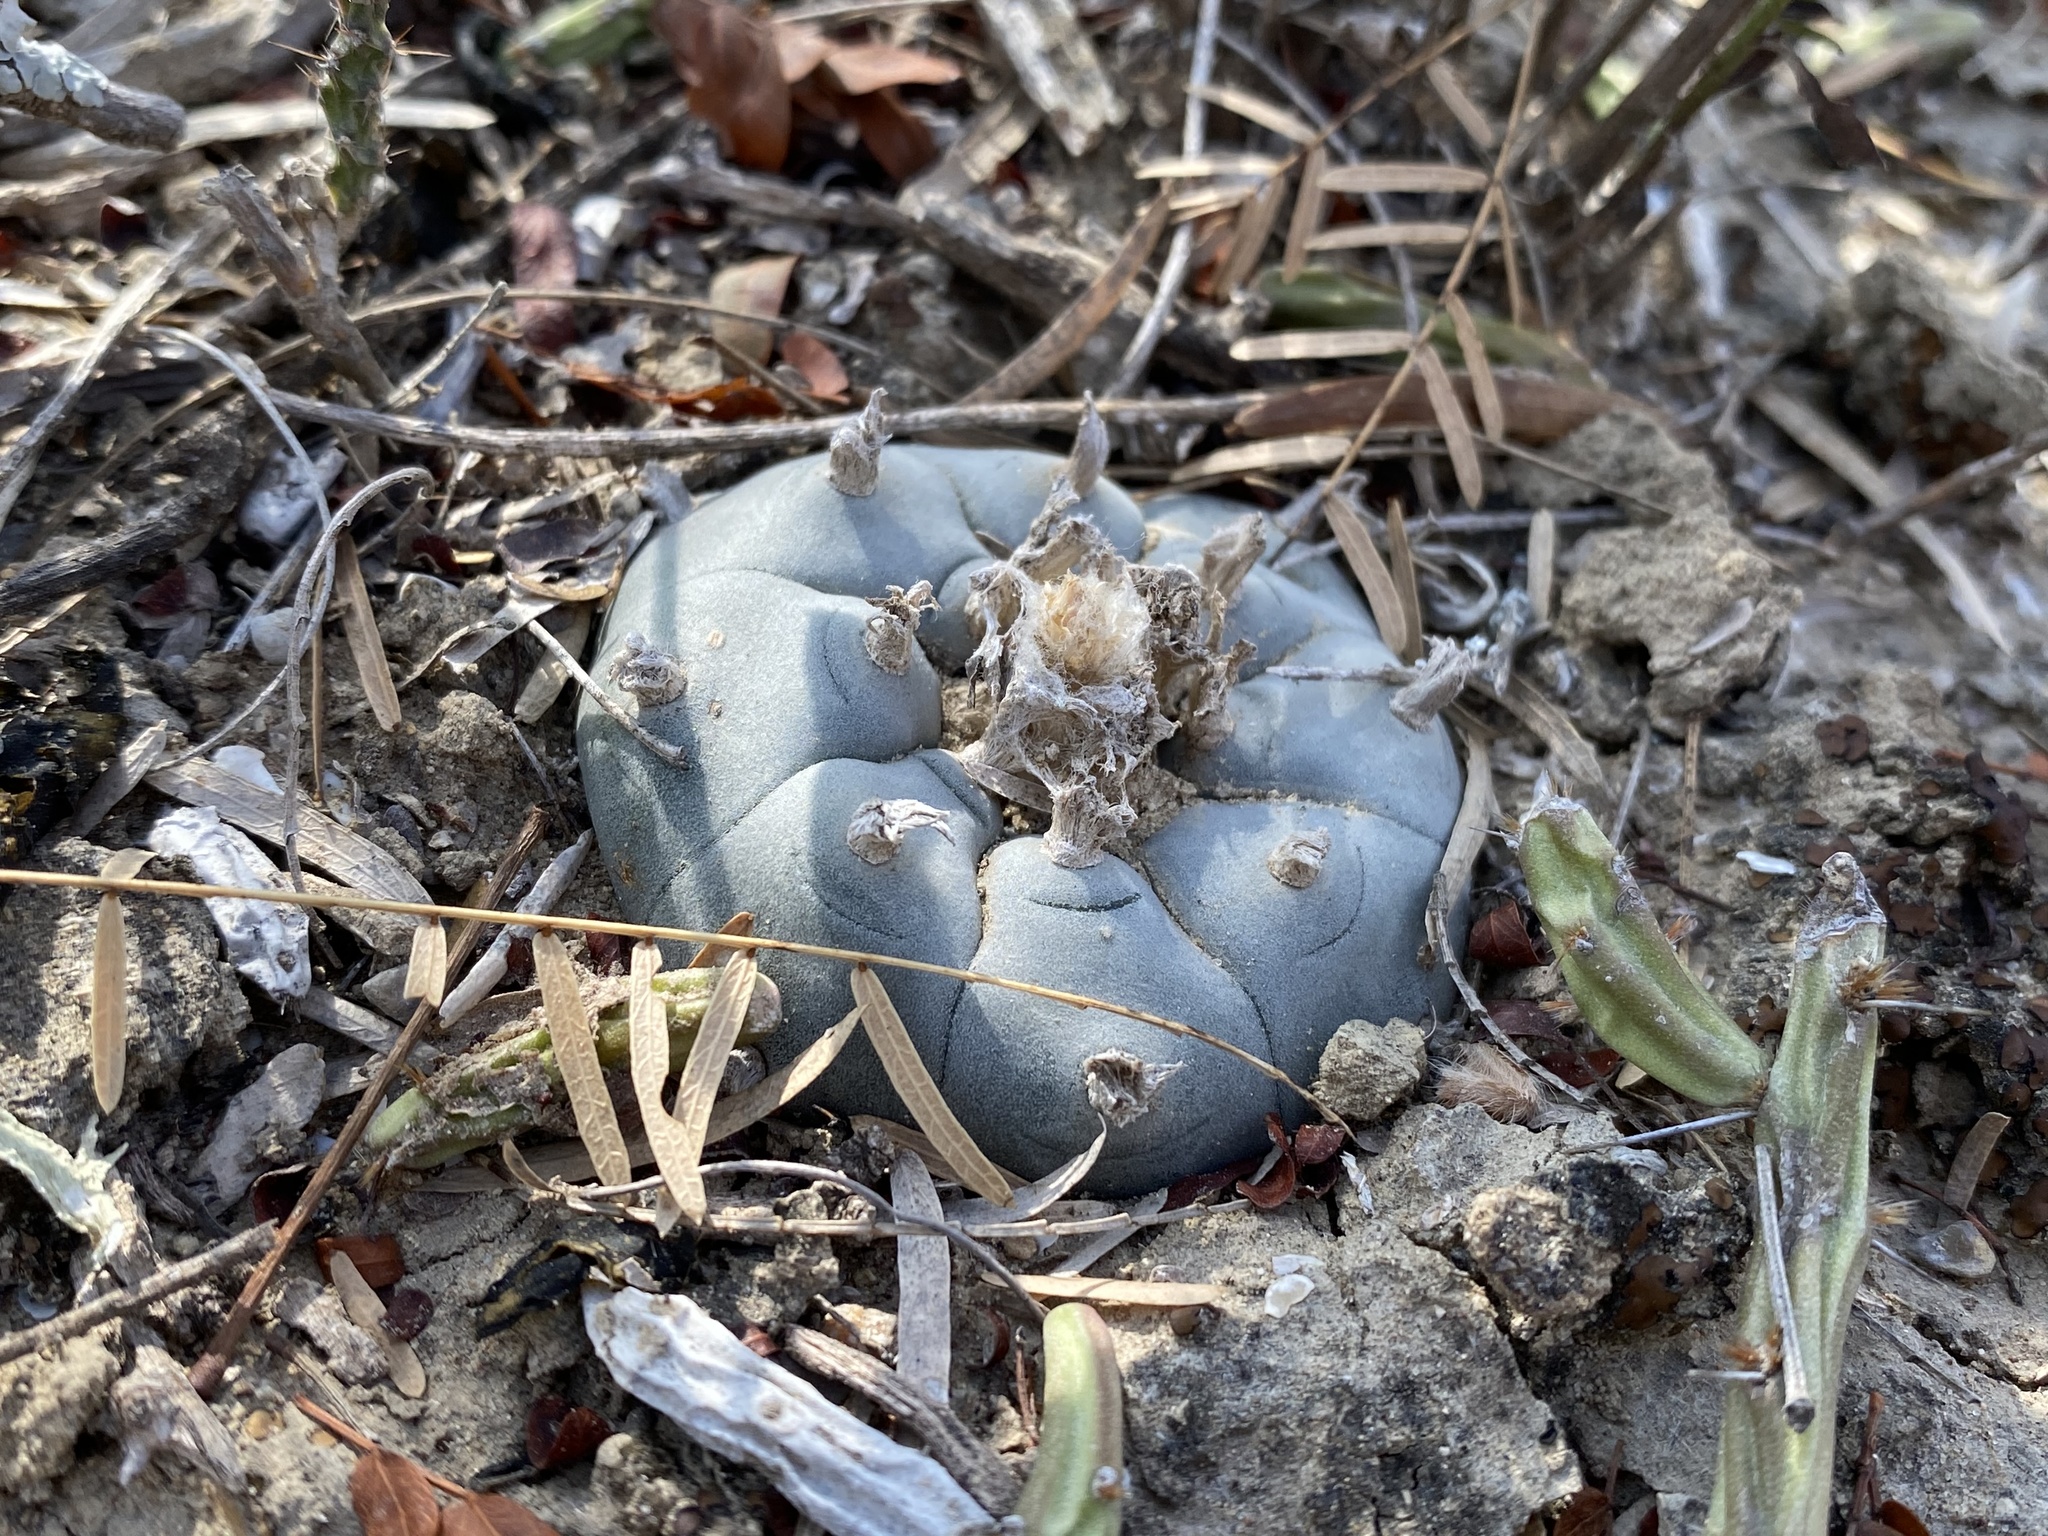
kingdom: Plantae
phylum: Tracheophyta
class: Magnoliopsida
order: Caryophyllales
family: Cactaceae
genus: Lophophora
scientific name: Lophophora williamsii
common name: Indian-dope
